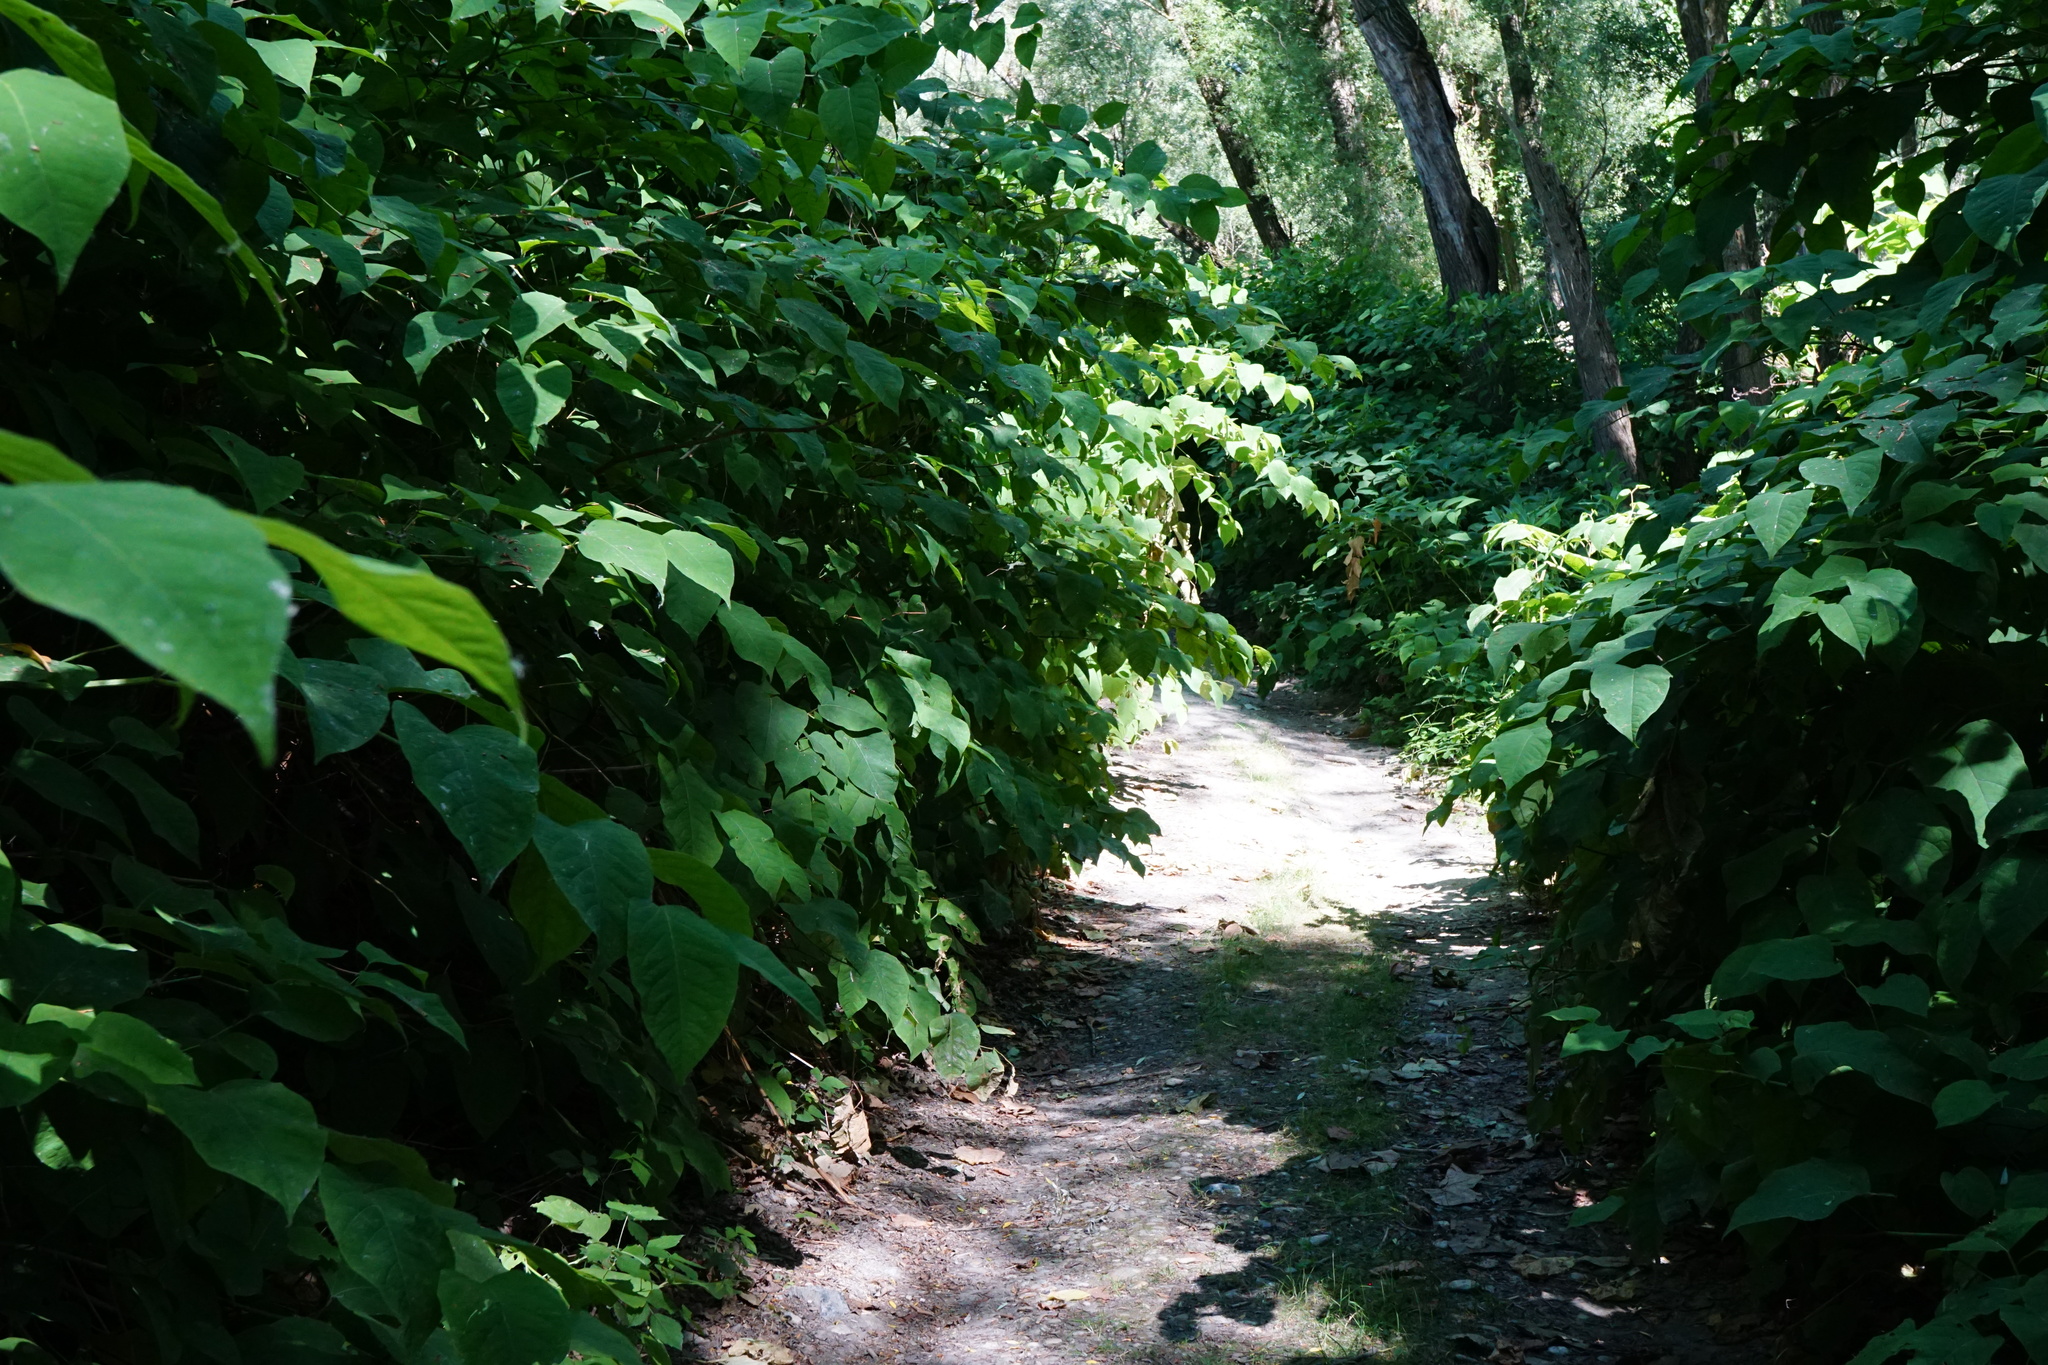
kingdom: Plantae
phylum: Tracheophyta
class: Magnoliopsida
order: Caryophyllales
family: Polygonaceae
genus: Reynoutria
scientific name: Reynoutria bohemica
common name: Bohemian knotweed
